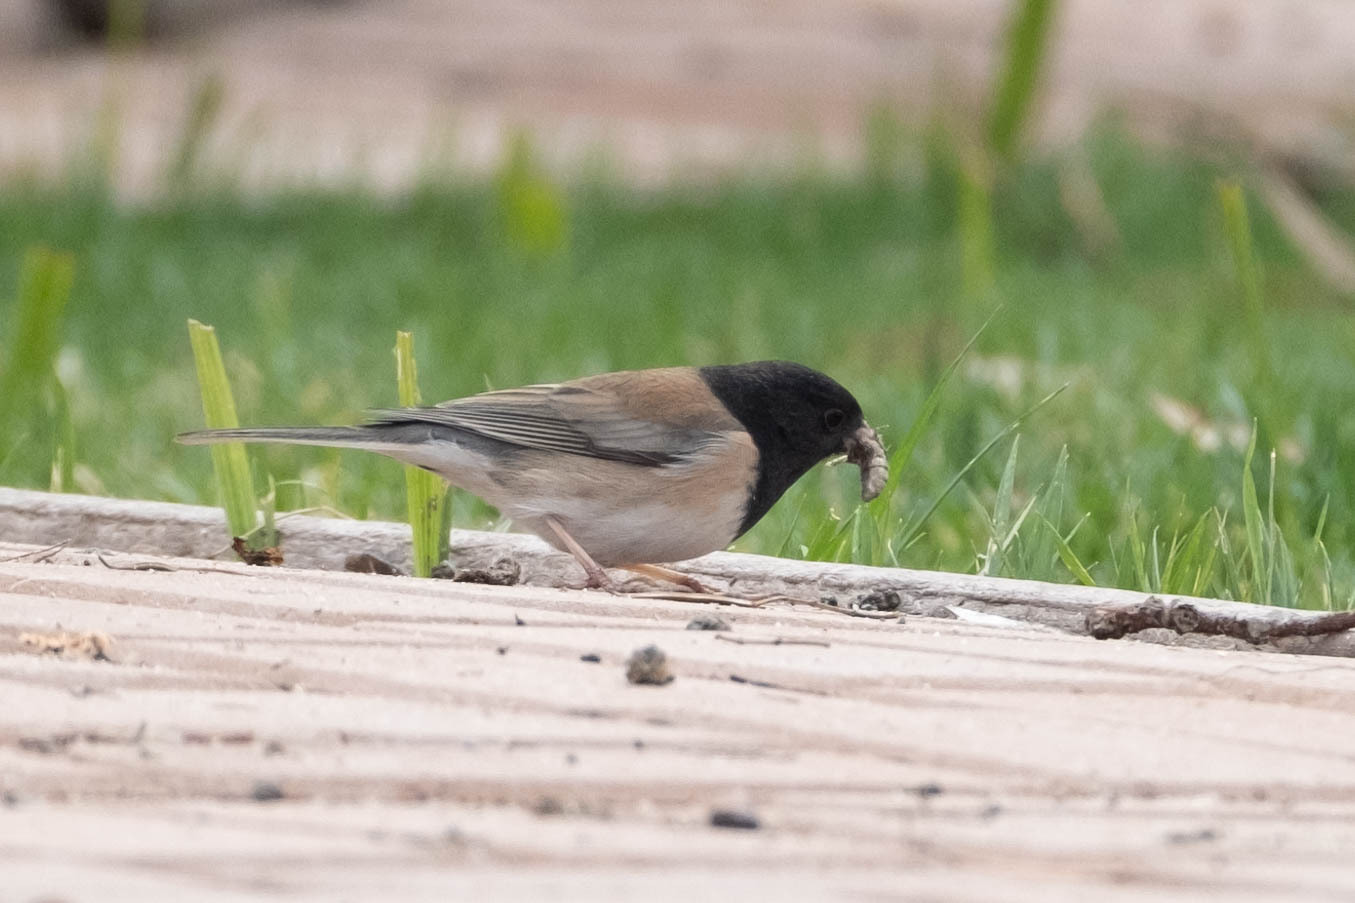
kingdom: Animalia
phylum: Chordata
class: Aves
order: Passeriformes
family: Passerellidae
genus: Junco
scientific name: Junco hyemalis
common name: Dark-eyed junco
